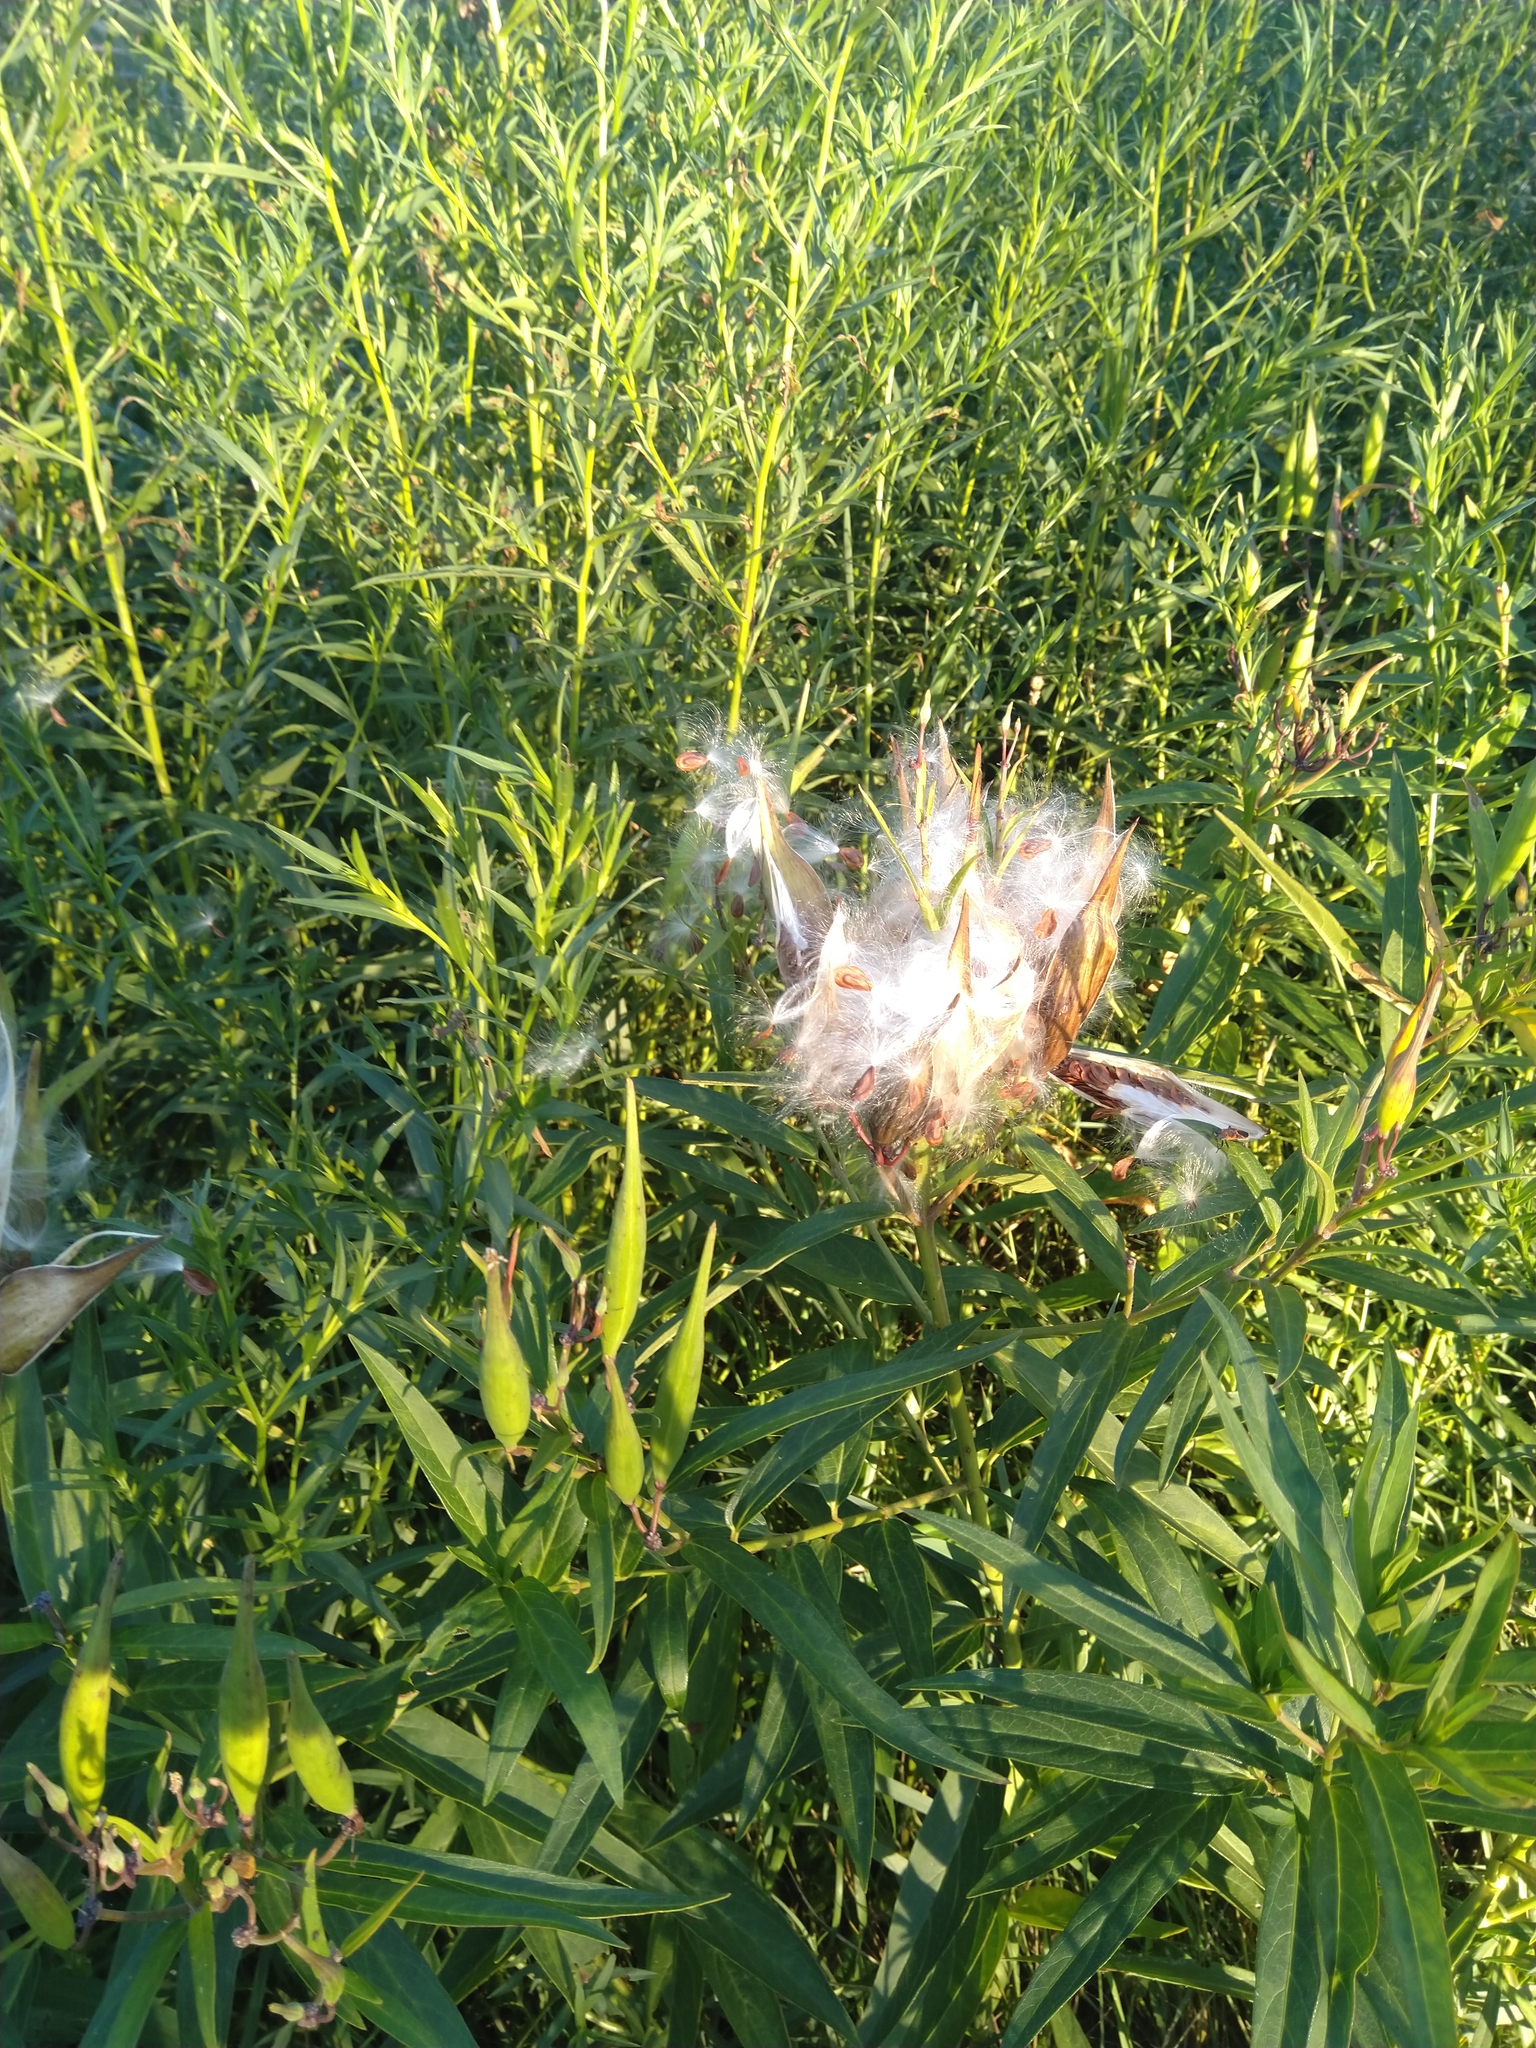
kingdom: Plantae
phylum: Tracheophyta
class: Magnoliopsida
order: Gentianales
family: Apocynaceae
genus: Asclepias
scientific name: Asclepias incarnata
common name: Swamp milkweed
